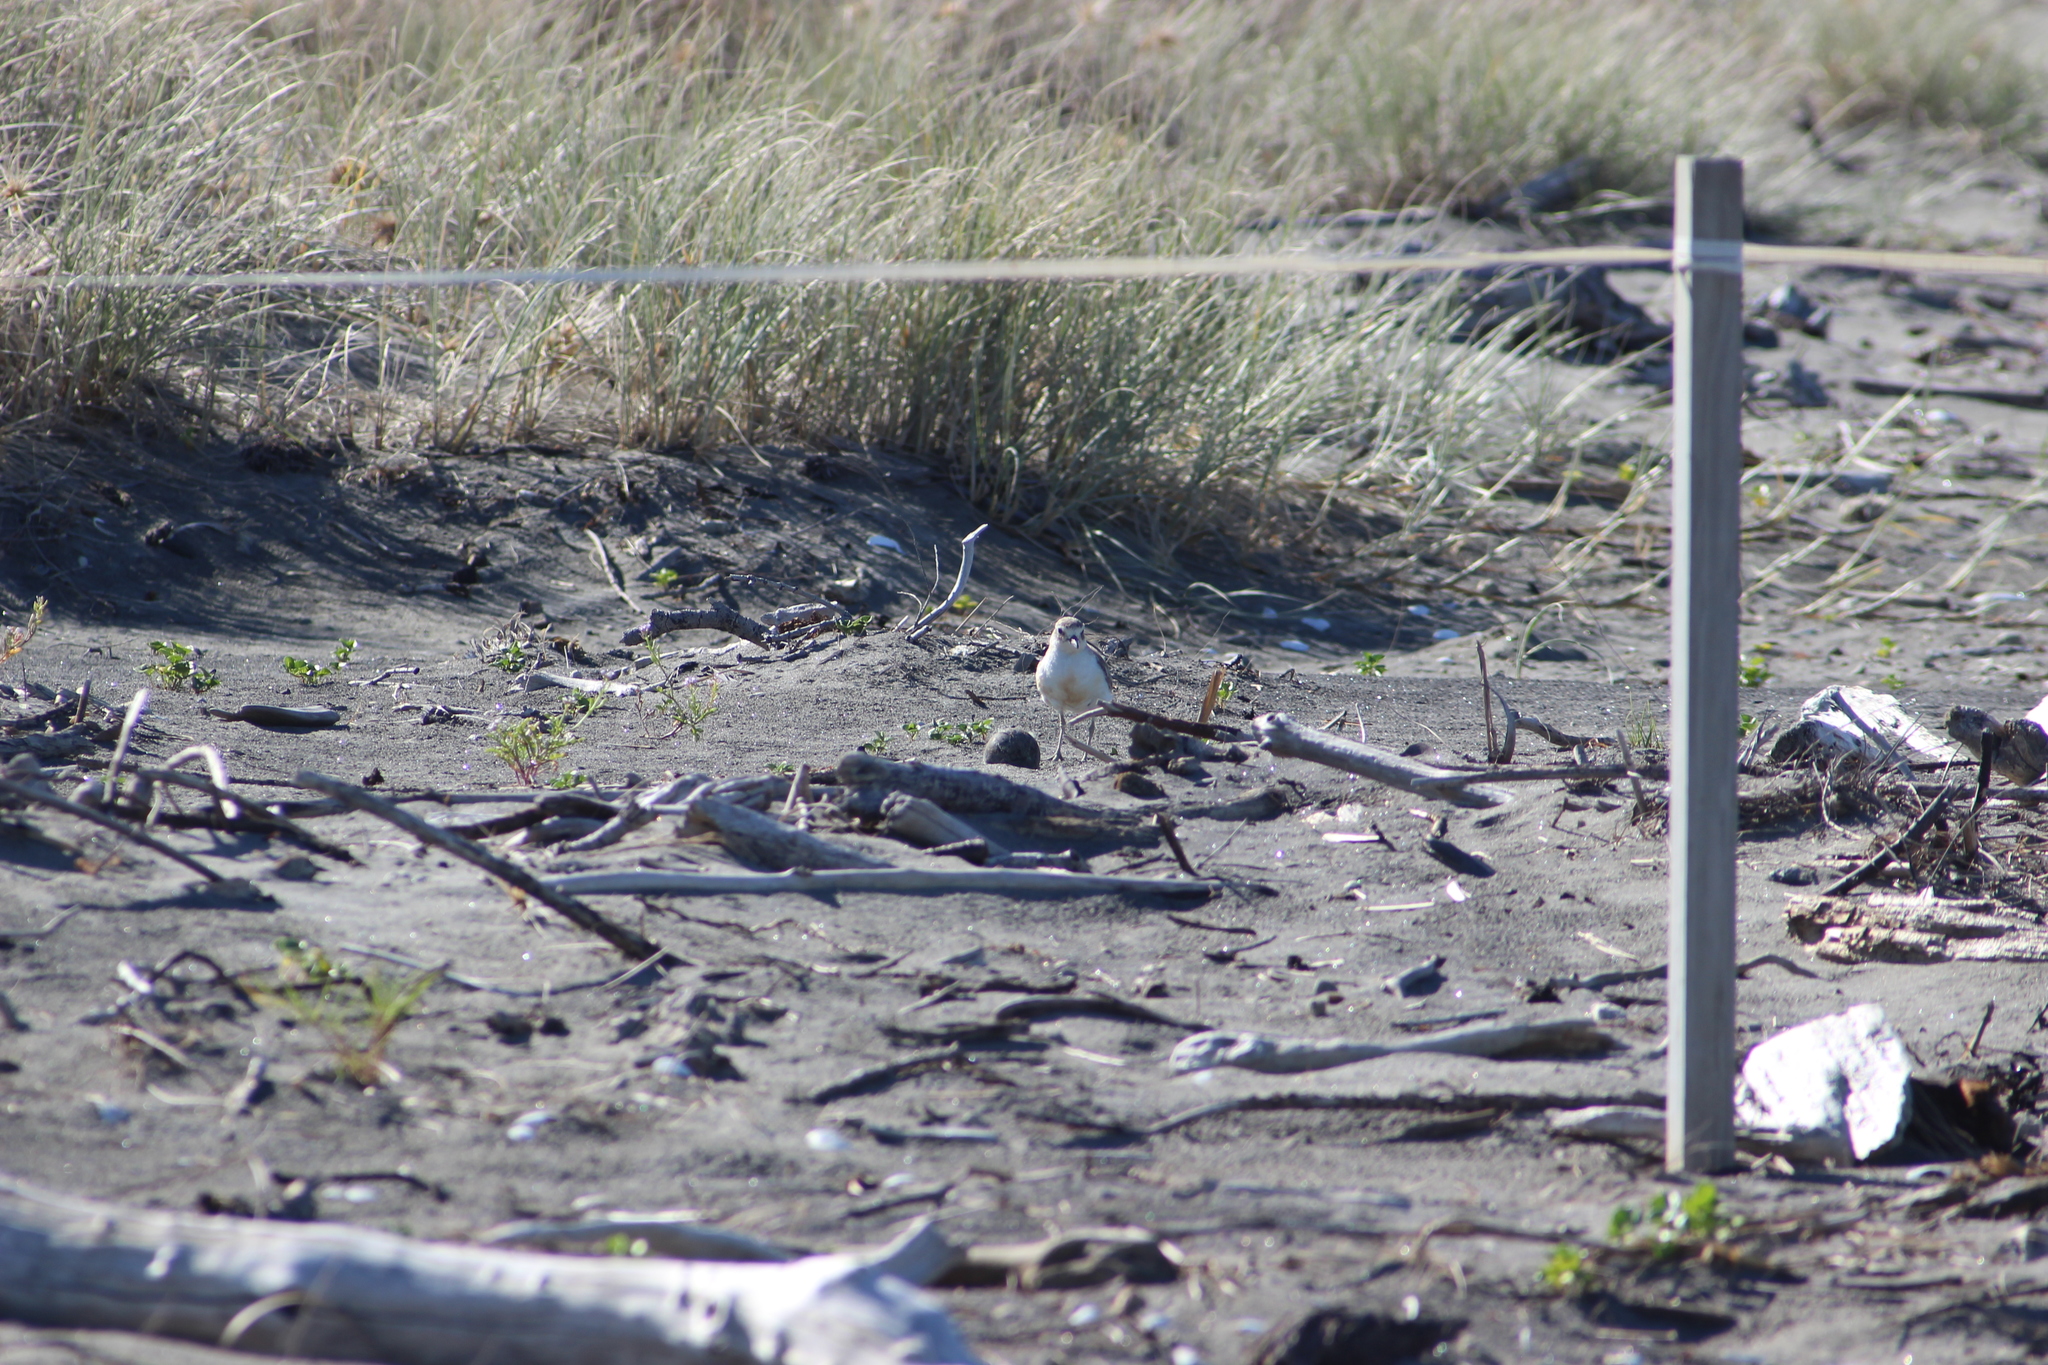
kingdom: Animalia
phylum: Chordata
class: Aves
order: Charadriiformes
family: Charadriidae
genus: Anarhynchus
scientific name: Anarhynchus
